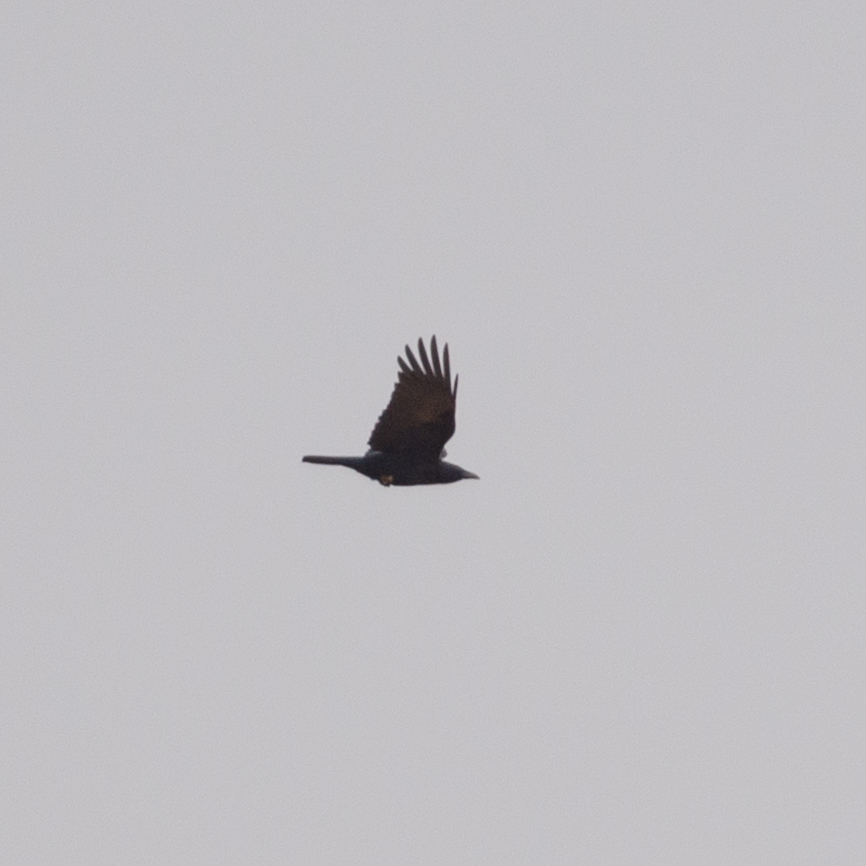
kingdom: Animalia
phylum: Chordata
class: Aves
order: Passeriformes
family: Corvidae
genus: Corvus
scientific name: Corvus corone
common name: Carrion crow
